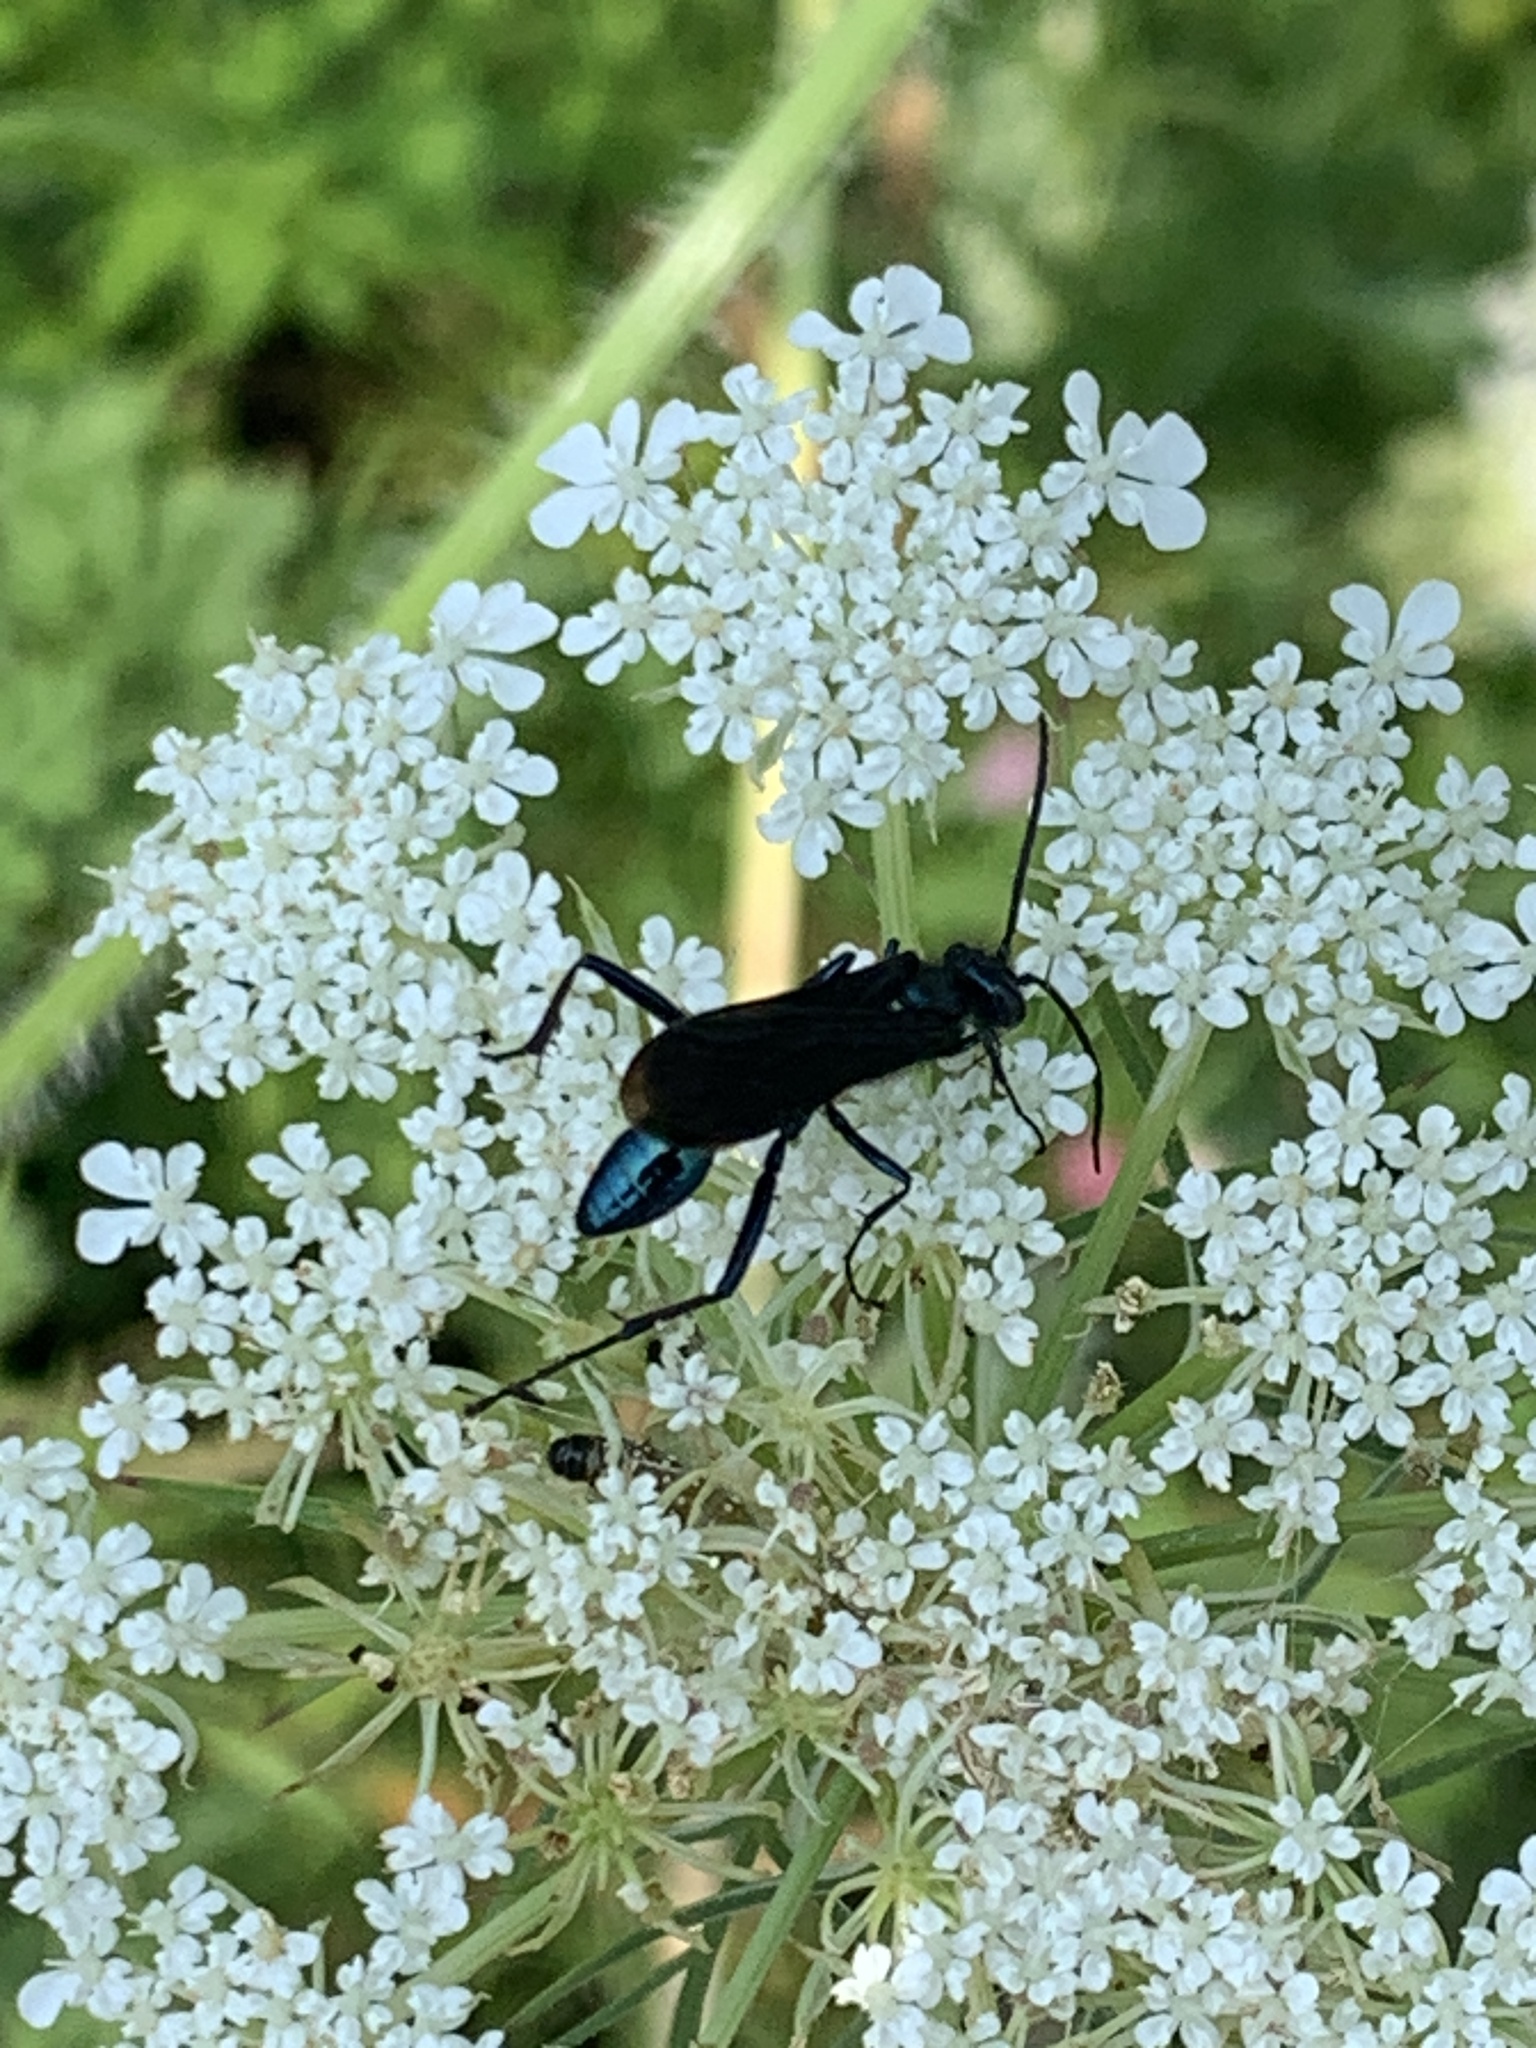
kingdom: Animalia
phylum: Arthropoda
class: Insecta
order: Hymenoptera
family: Sphecidae
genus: Chalybion
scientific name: Chalybion californicum
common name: Mud dauber
